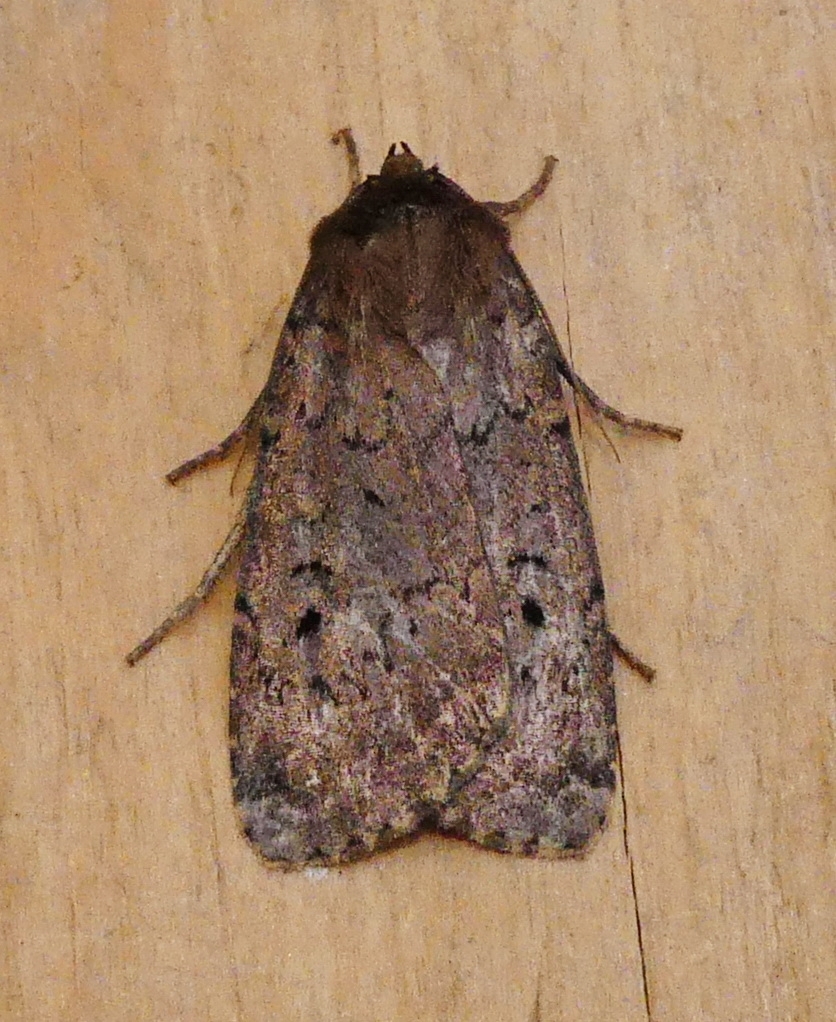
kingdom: Animalia
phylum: Arthropoda
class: Insecta
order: Lepidoptera
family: Noctuidae
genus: Graphiphora
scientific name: Graphiphora augur
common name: Double dart
